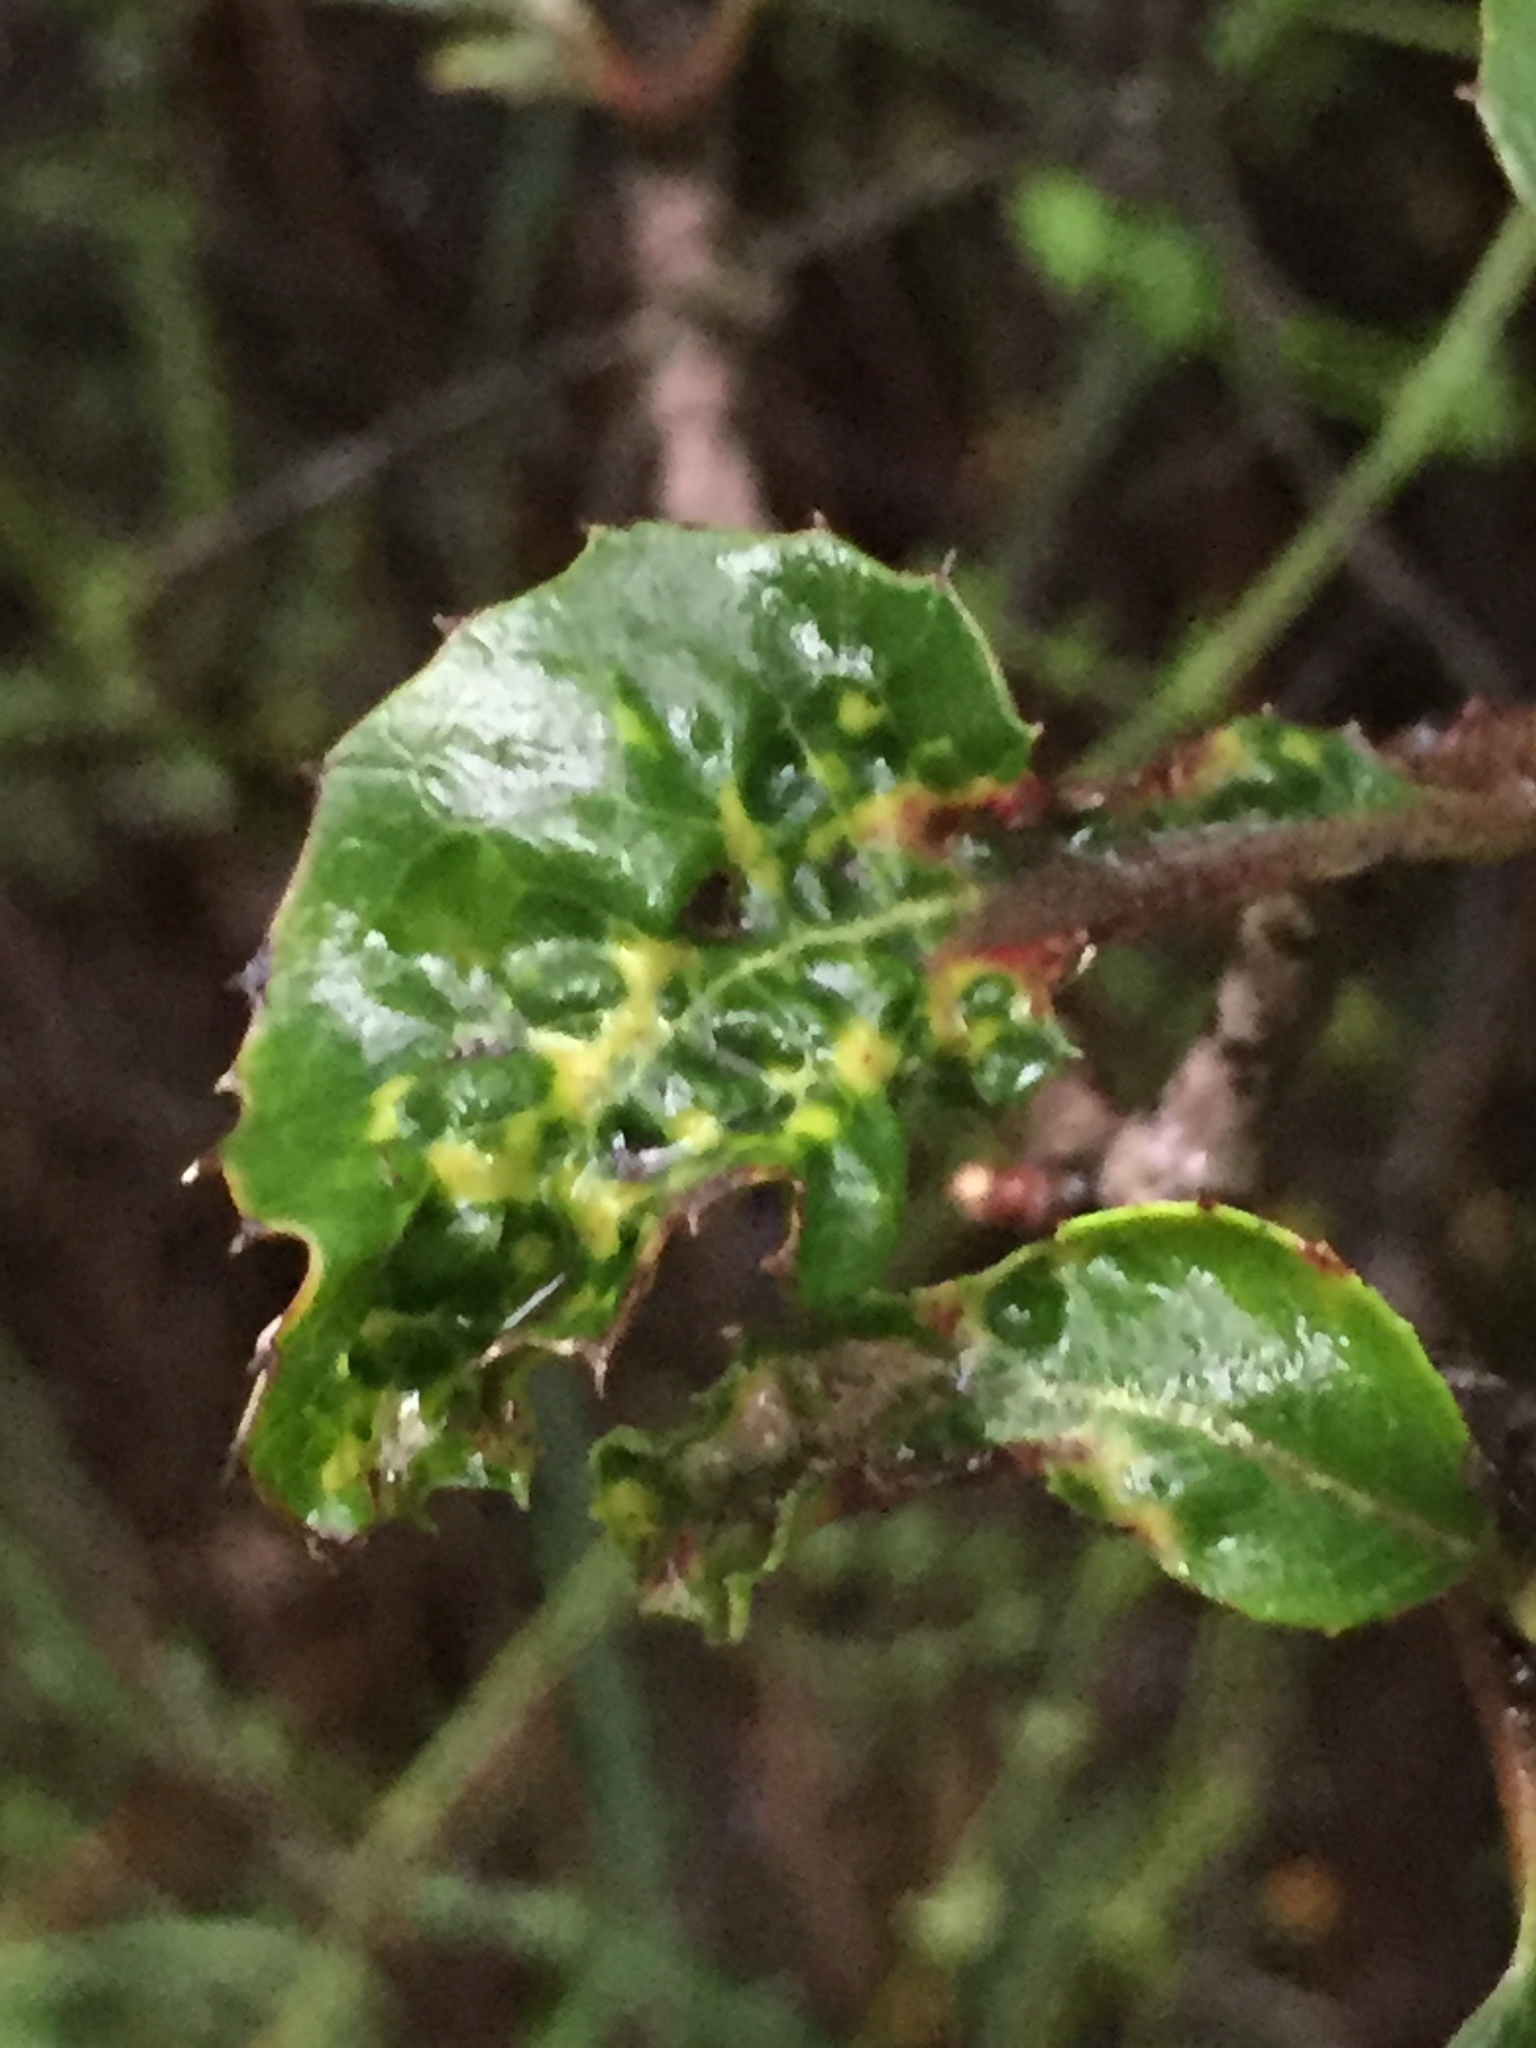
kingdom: Plantae
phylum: Tracheophyta
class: Magnoliopsida
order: Rosales
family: Rosaceae
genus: Heteromeles
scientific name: Heteromeles arbutifolia
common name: California-holly
